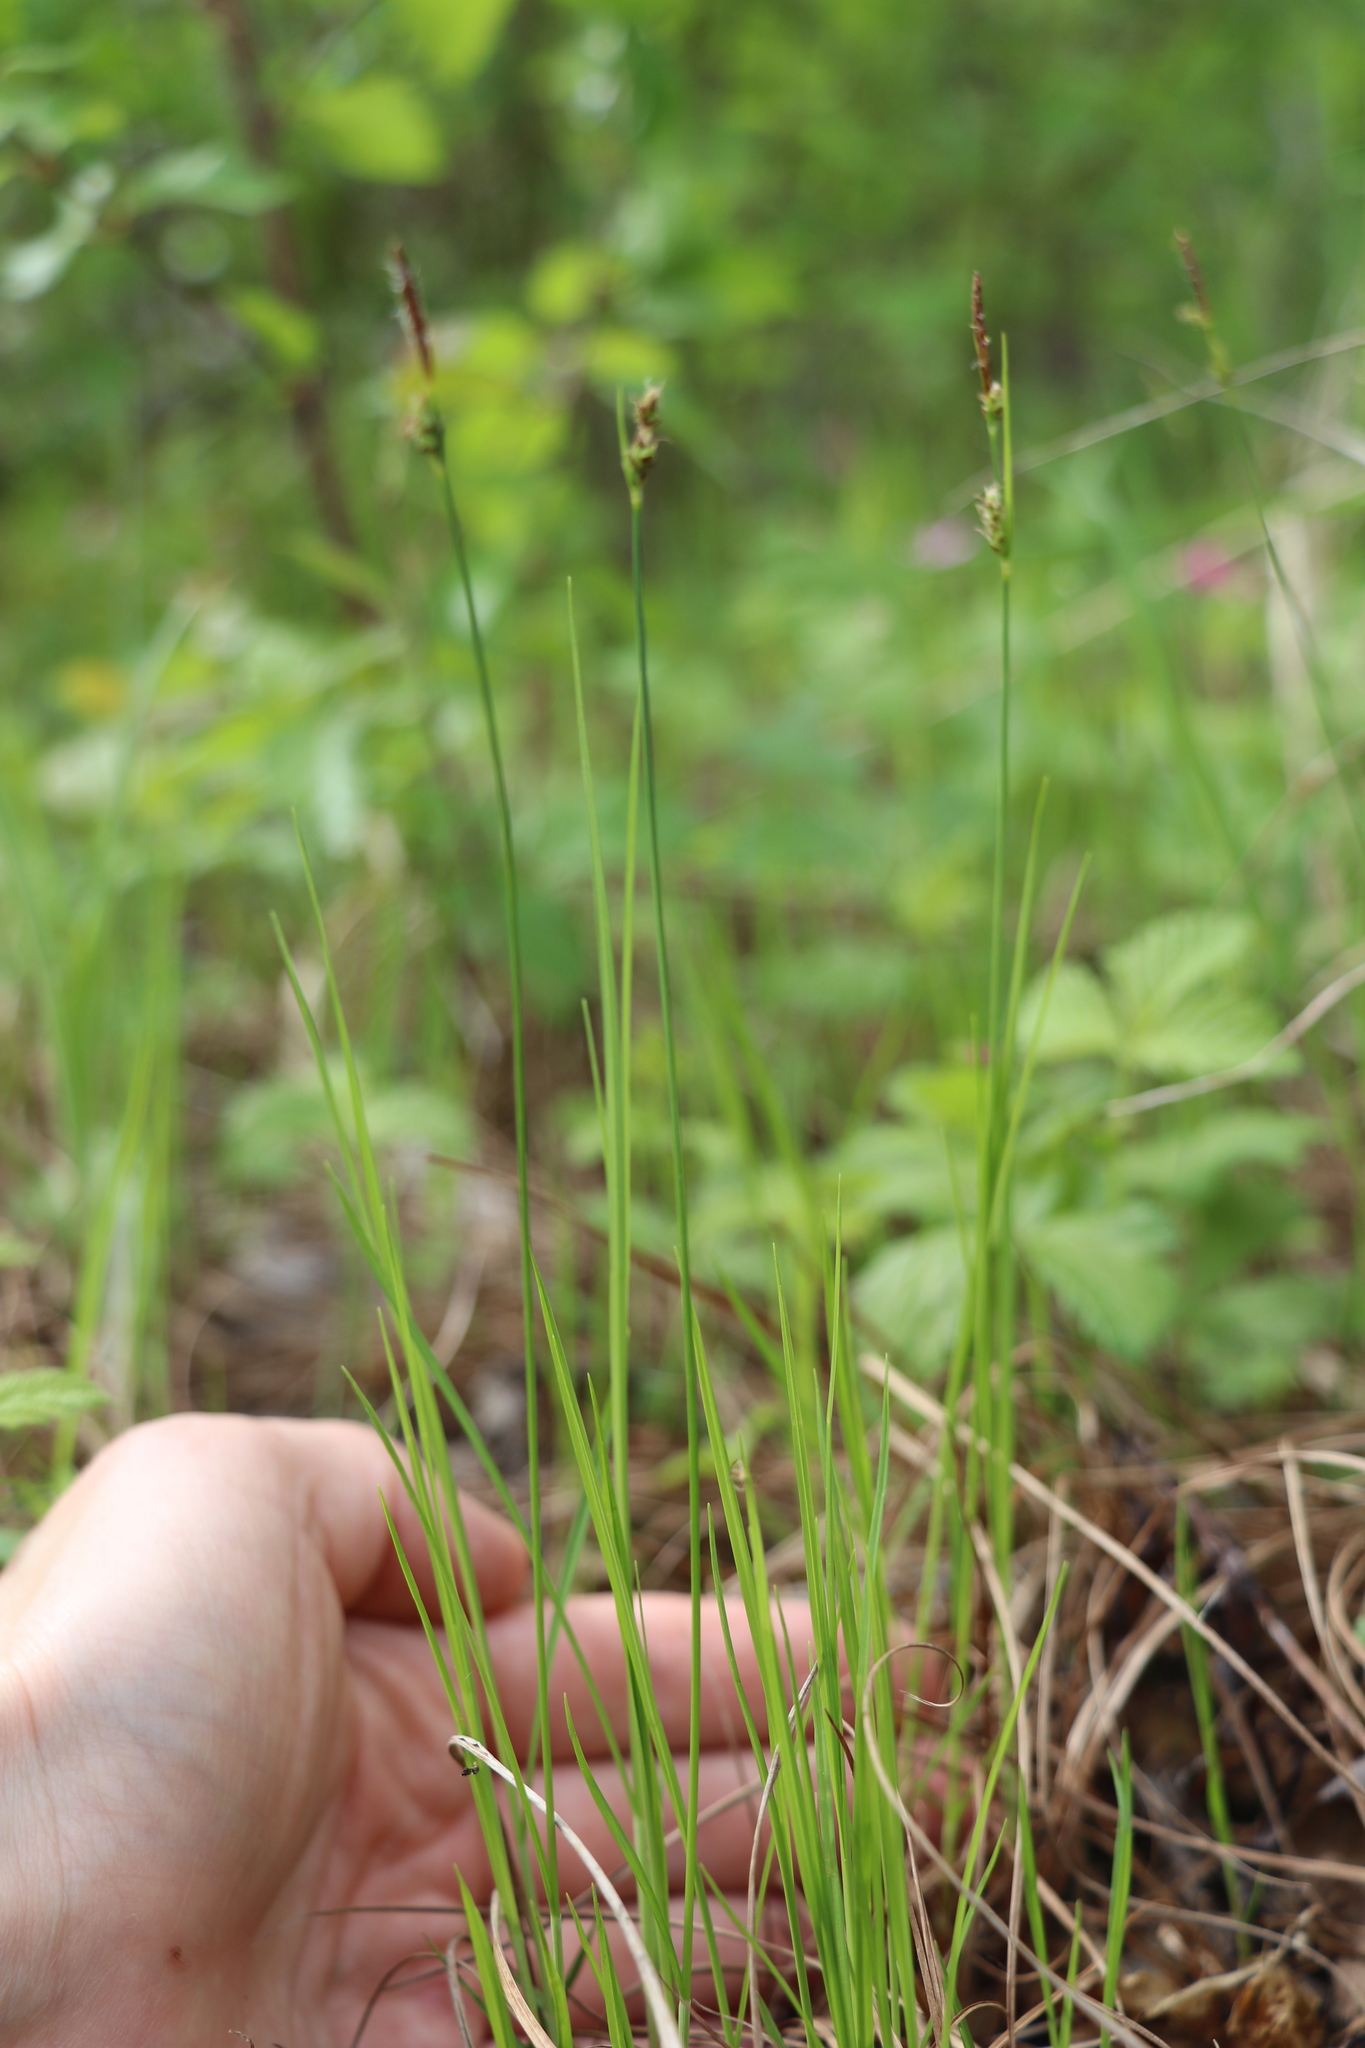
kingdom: Plantae
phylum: Tracheophyta
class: Liliopsida
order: Poales
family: Cyperaceae
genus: Carex
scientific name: Carex globularis
